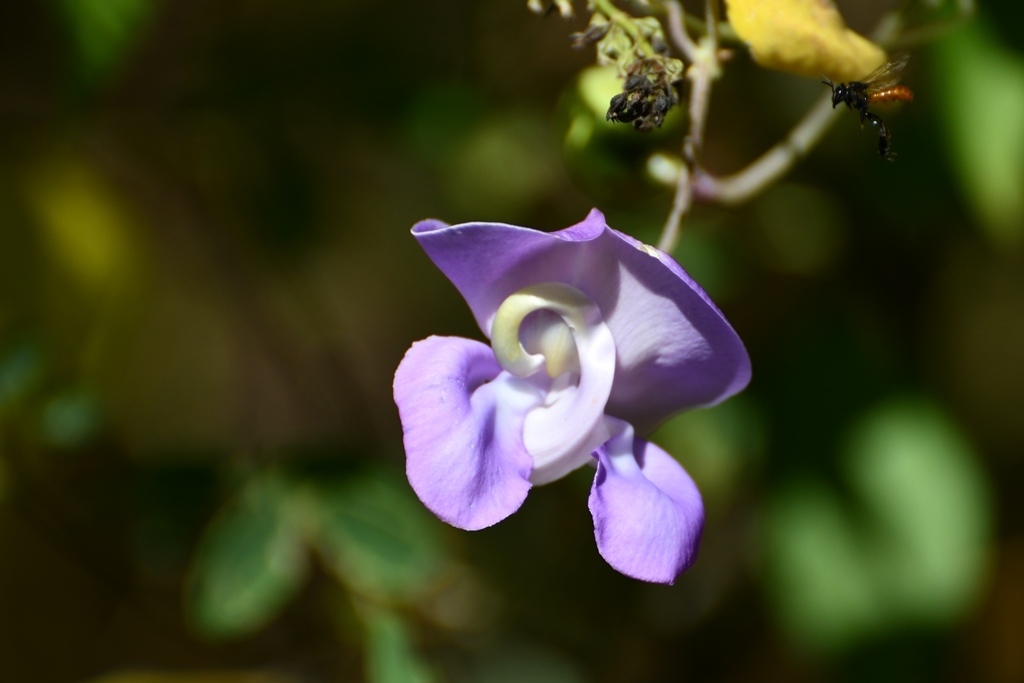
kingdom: Plantae
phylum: Tracheophyta
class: Magnoliopsida
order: Fabales
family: Fabaceae
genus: Leptospron
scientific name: Leptospron adenanthum
